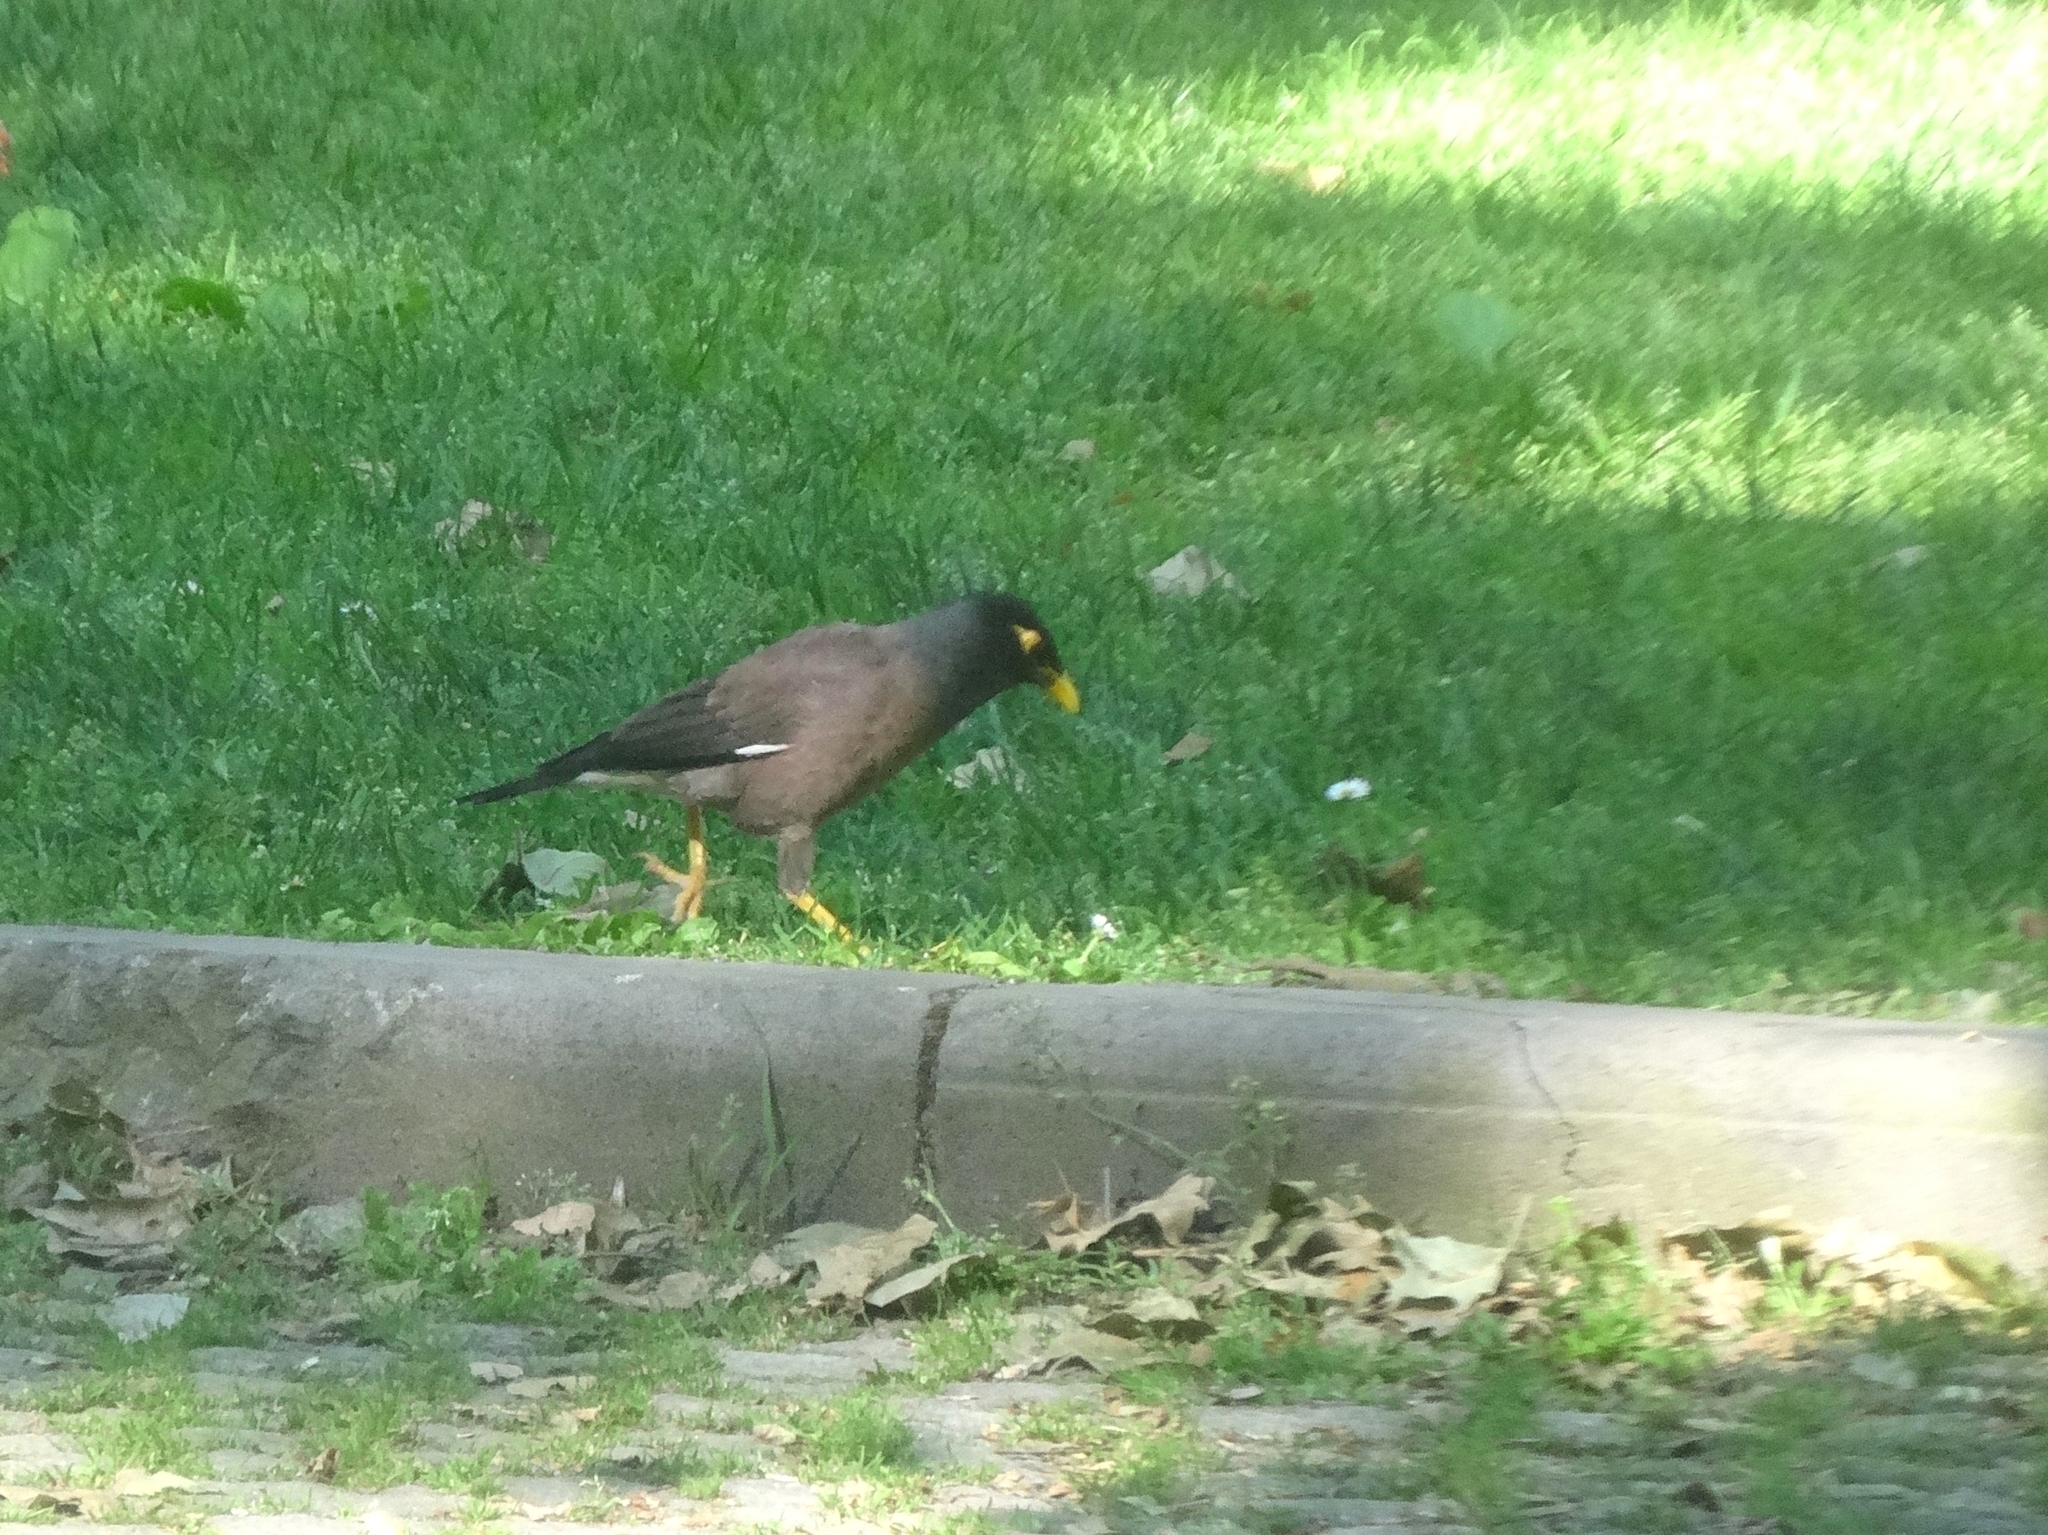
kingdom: Animalia
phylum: Chordata
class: Aves
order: Passeriformes
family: Sturnidae
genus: Acridotheres
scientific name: Acridotheres tristis
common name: Common myna
